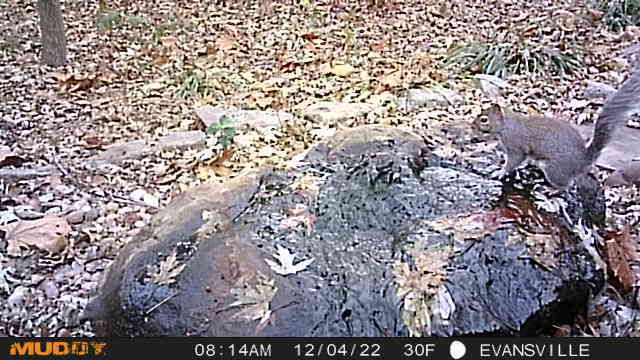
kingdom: Animalia
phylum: Chordata
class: Mammalia
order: Rodentia
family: Sciuridae
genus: Sciurus
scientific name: Sciurus carolinensis
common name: Eastern gray squirrel
